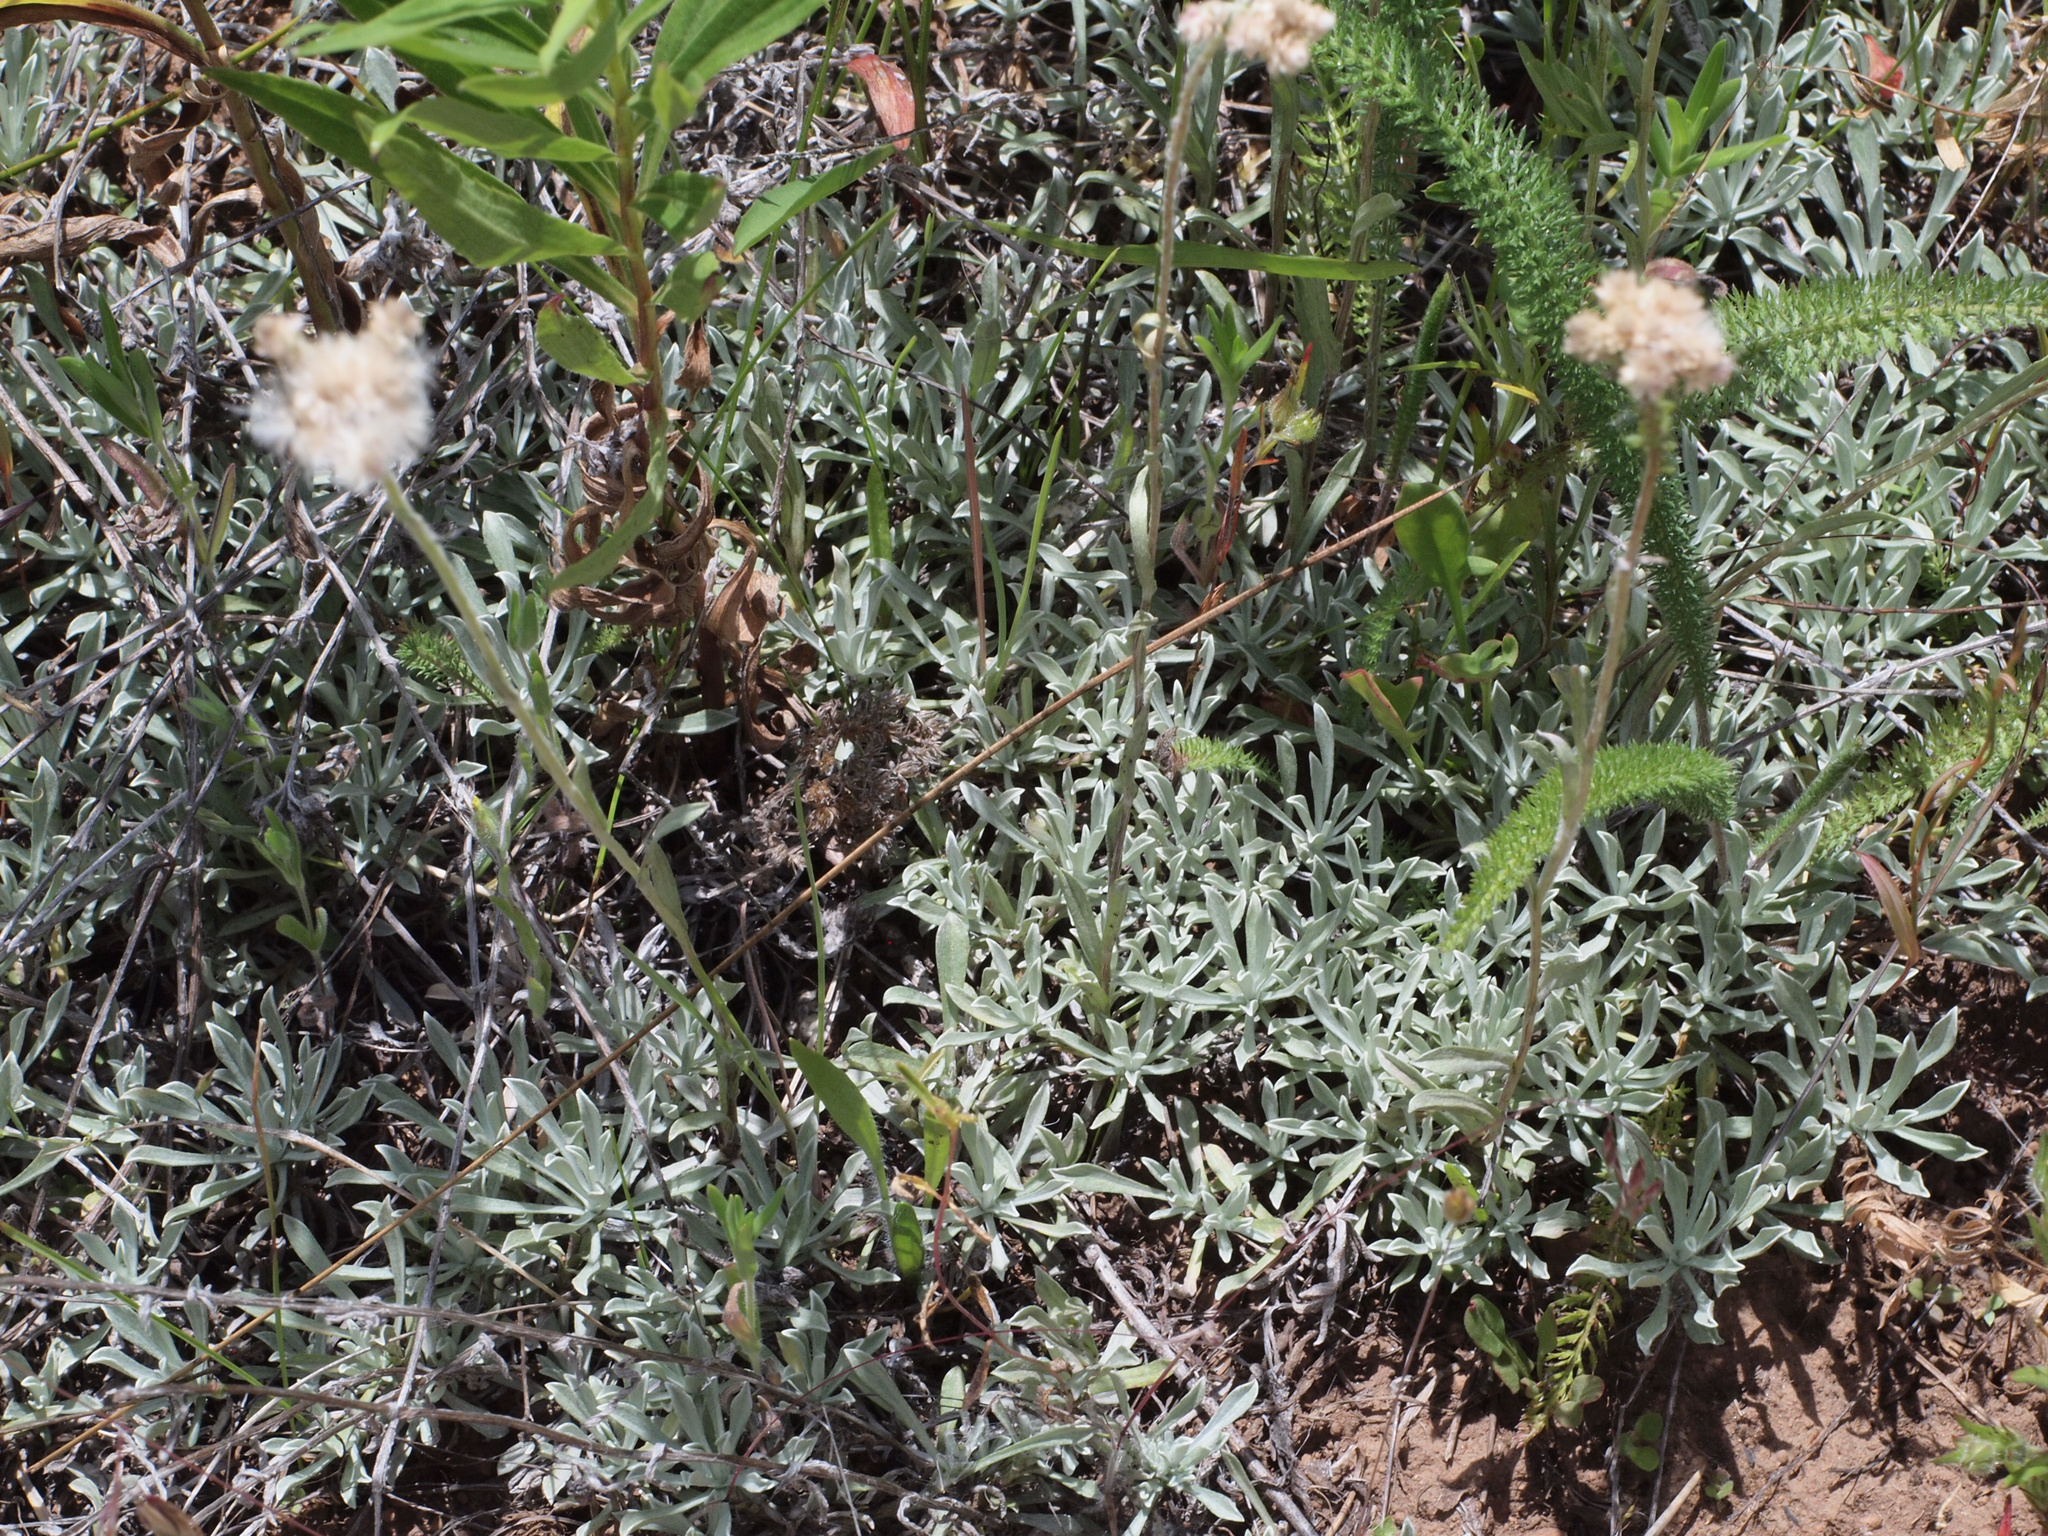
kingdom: Plantae
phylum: Tracheophyta
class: Magnoliopsida
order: Asterales
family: Asteraceae
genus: Antennaria
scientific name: Antennaria rosea
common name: Rosy pussytoes
